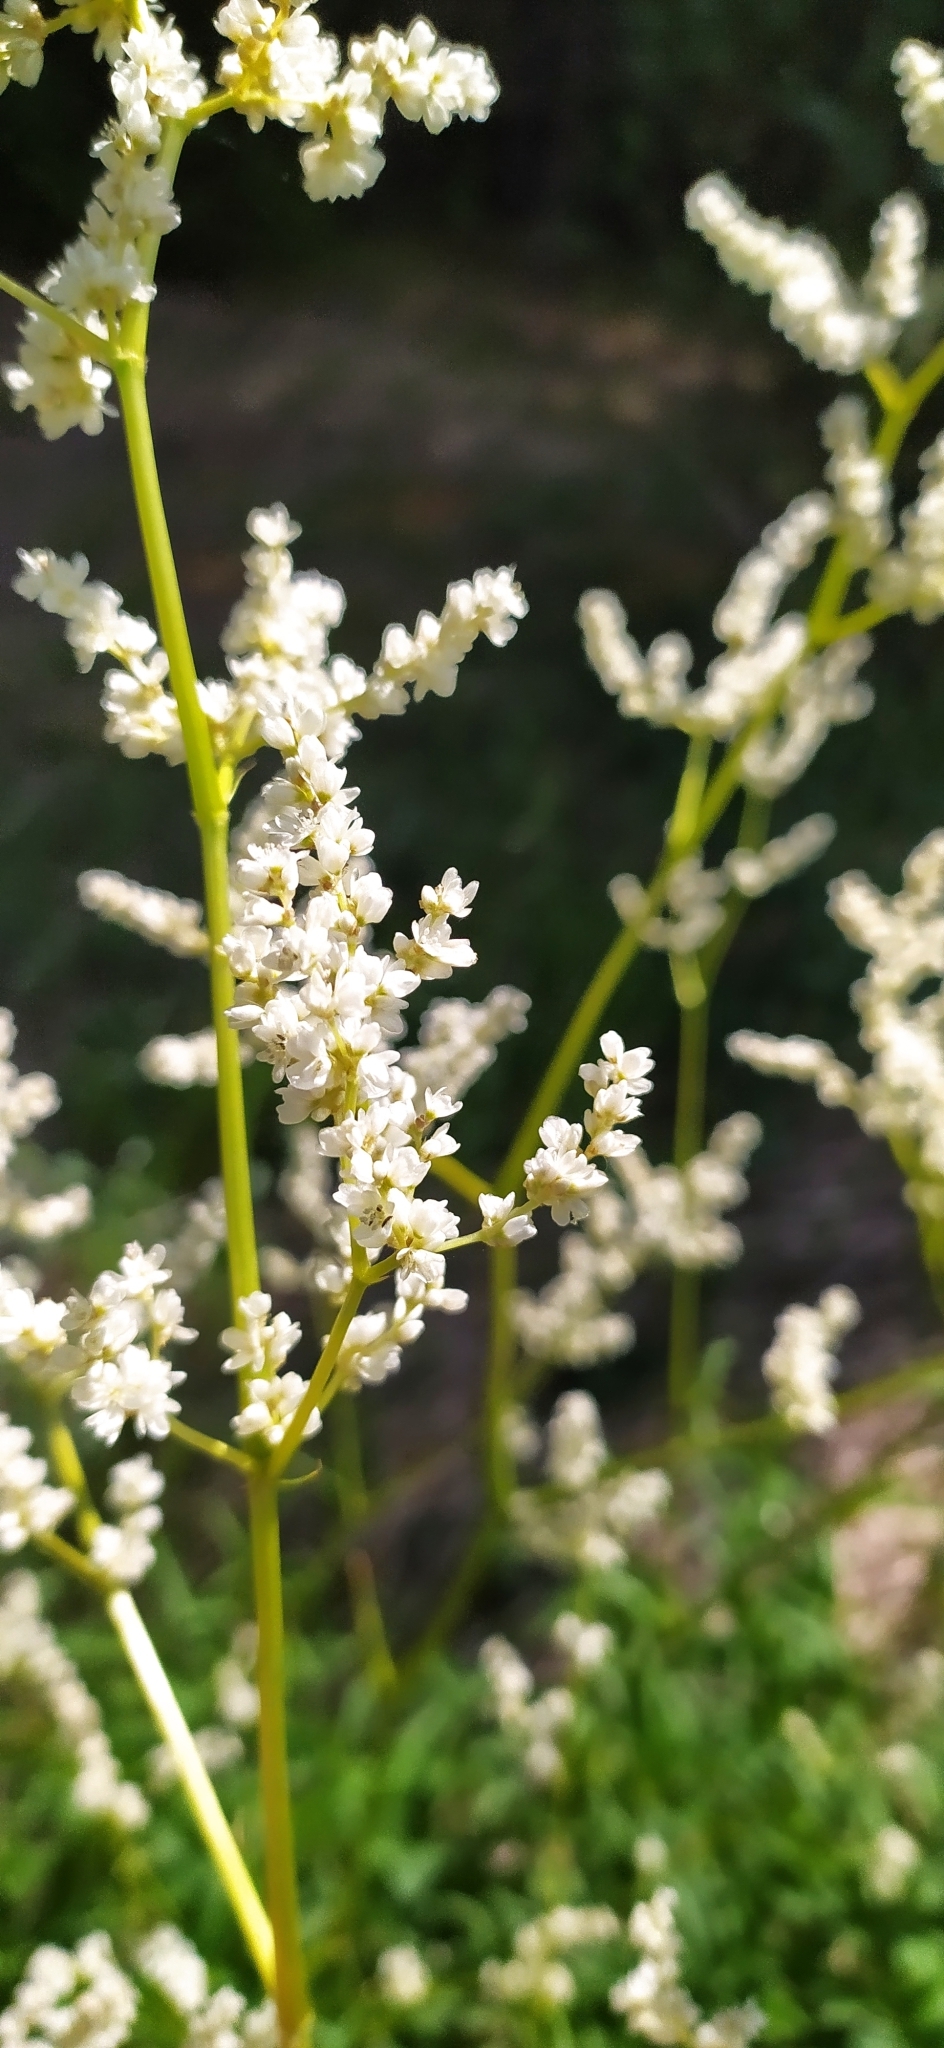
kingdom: Plantae
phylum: Tracheophyta
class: Magnoliopsida
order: Caryophyllales
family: Polygonaceae
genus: Koenigia
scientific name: Koenigia alpina
